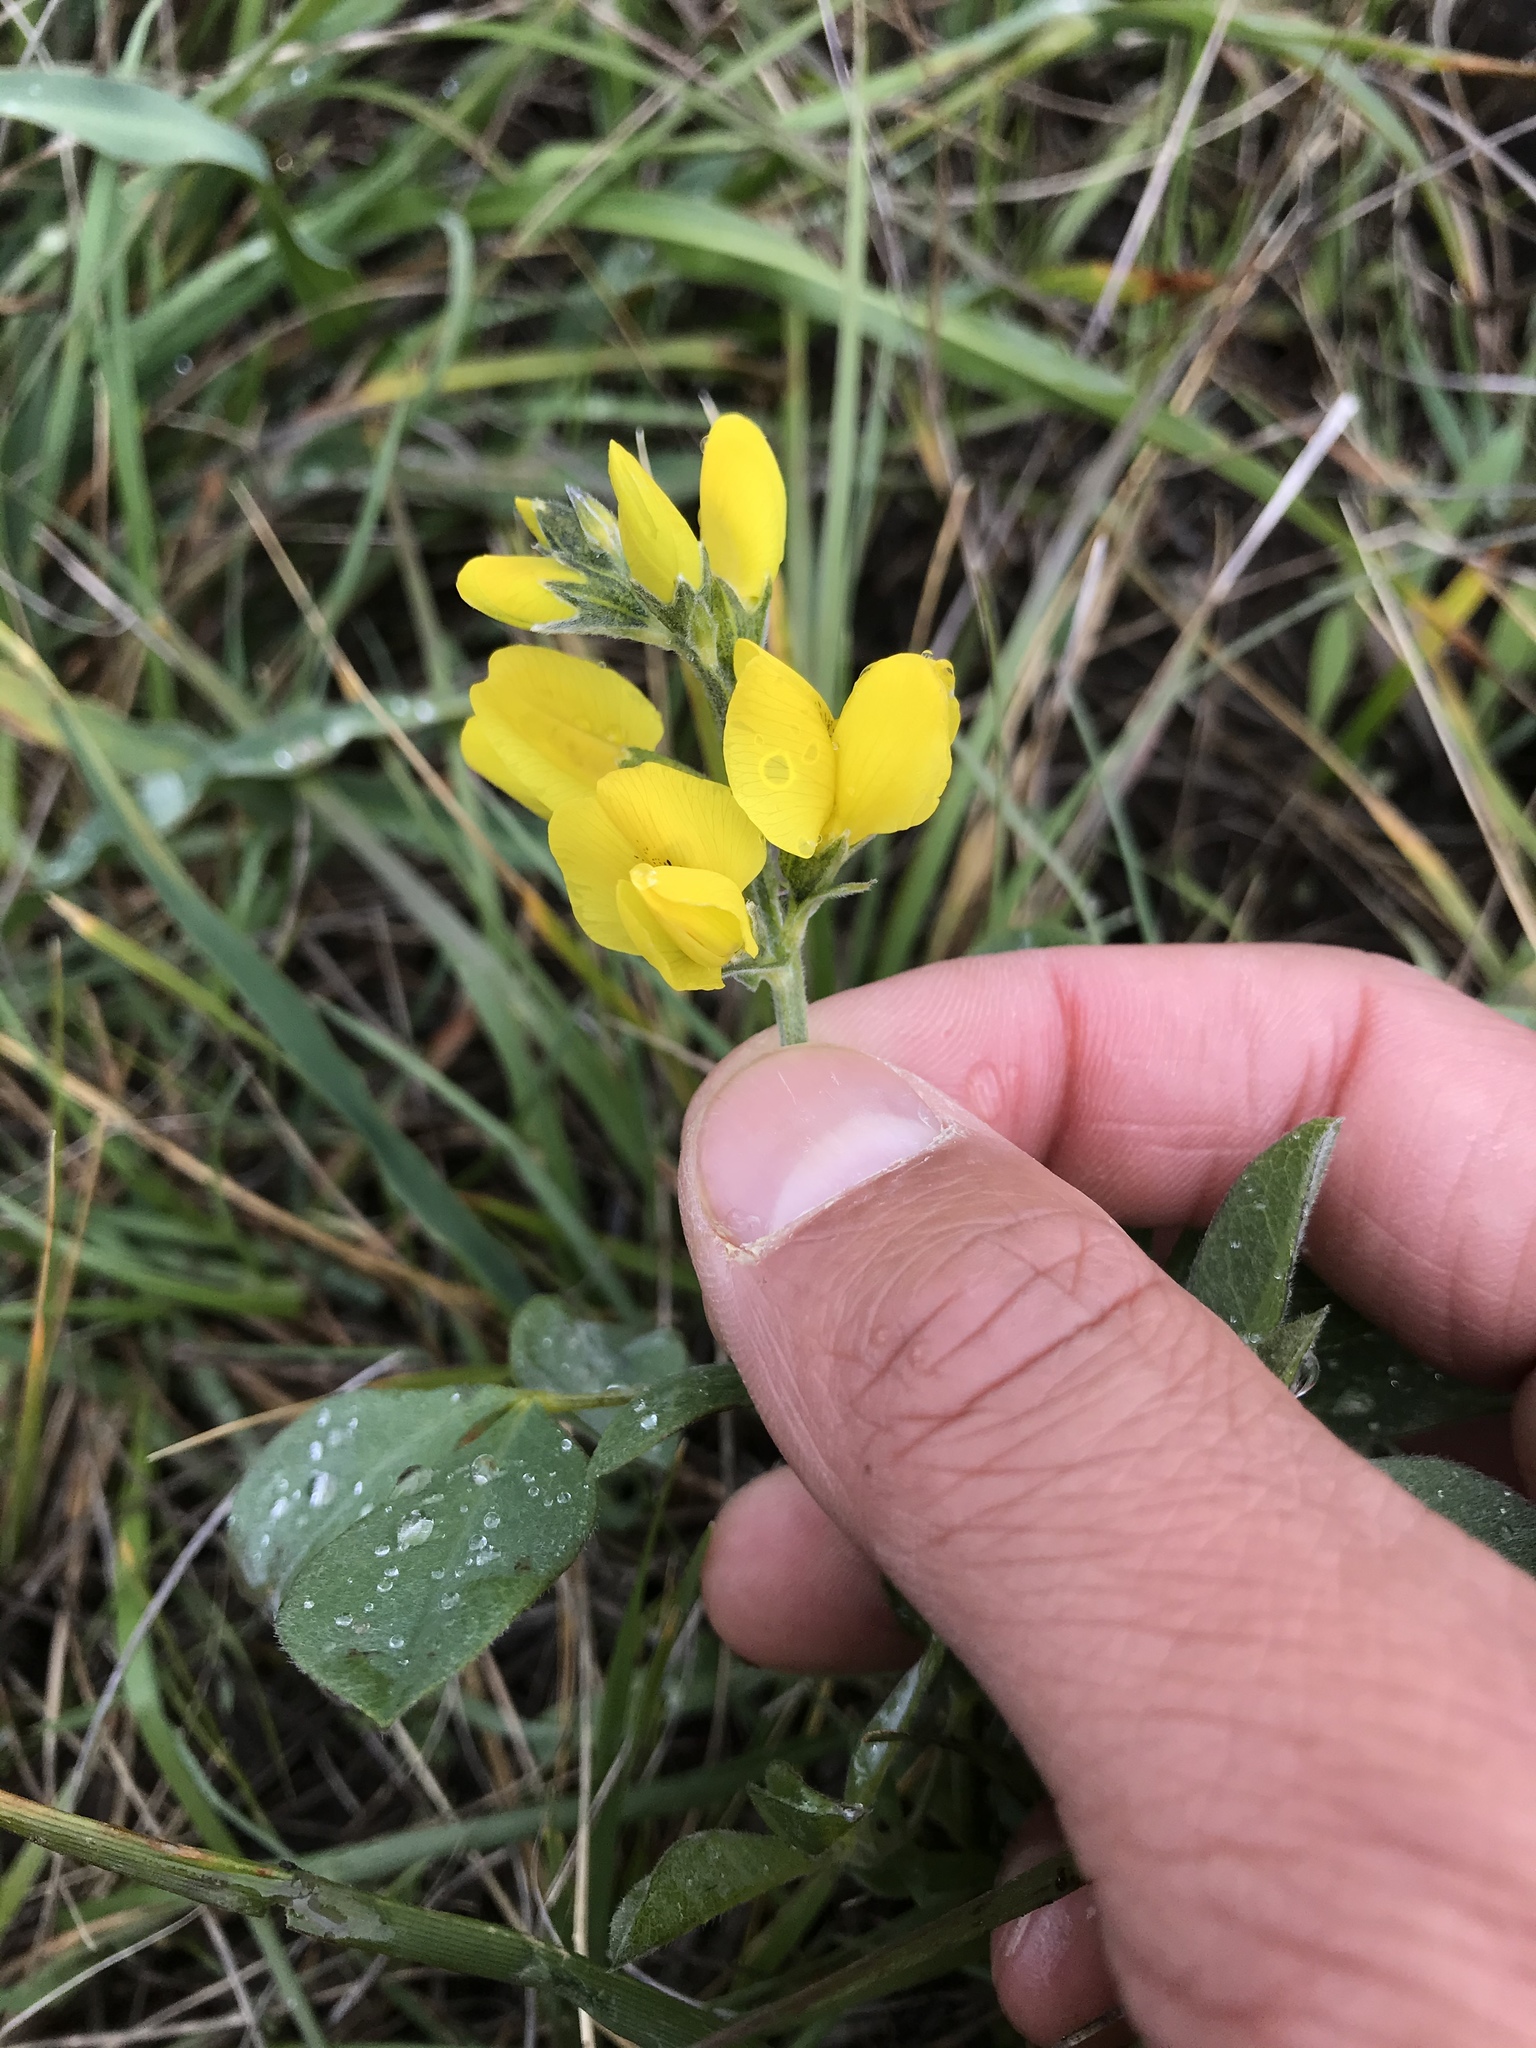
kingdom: Plantae
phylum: Tracheophyta
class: Magnoliopsida
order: Fabales
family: Fabaceae
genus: Thermopsis
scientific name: Thermopsis californica
